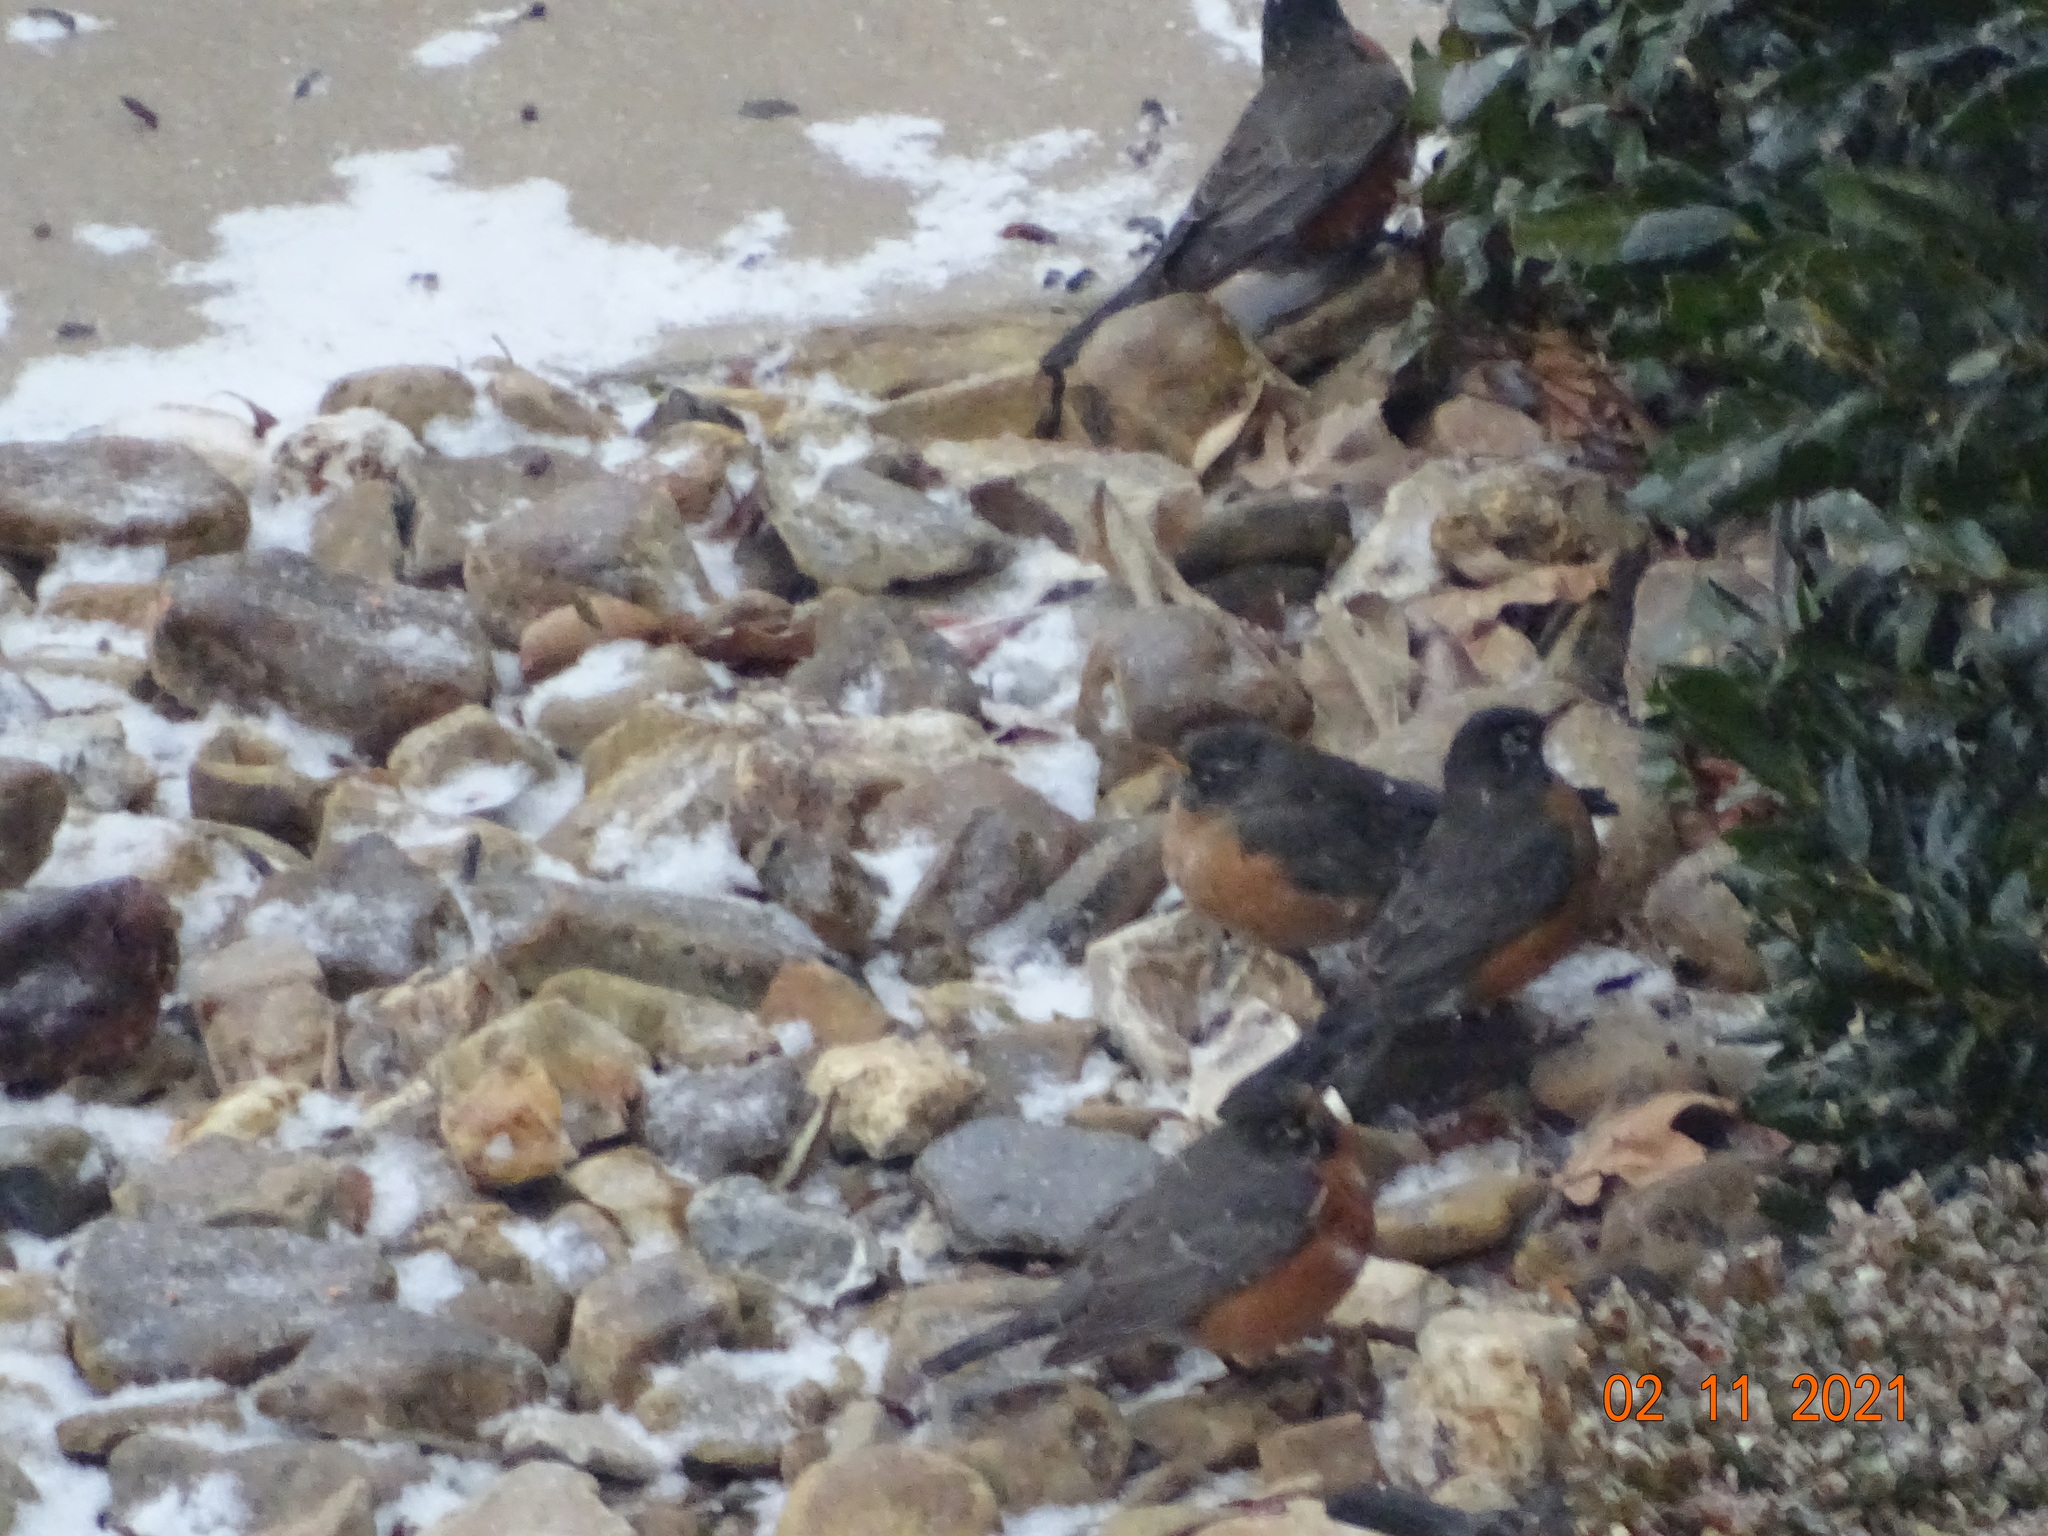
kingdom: Animalia
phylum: Chordata
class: Aves
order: Passeriformes
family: Turdidae
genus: Turdus
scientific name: Turdus migratorius
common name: American robin
